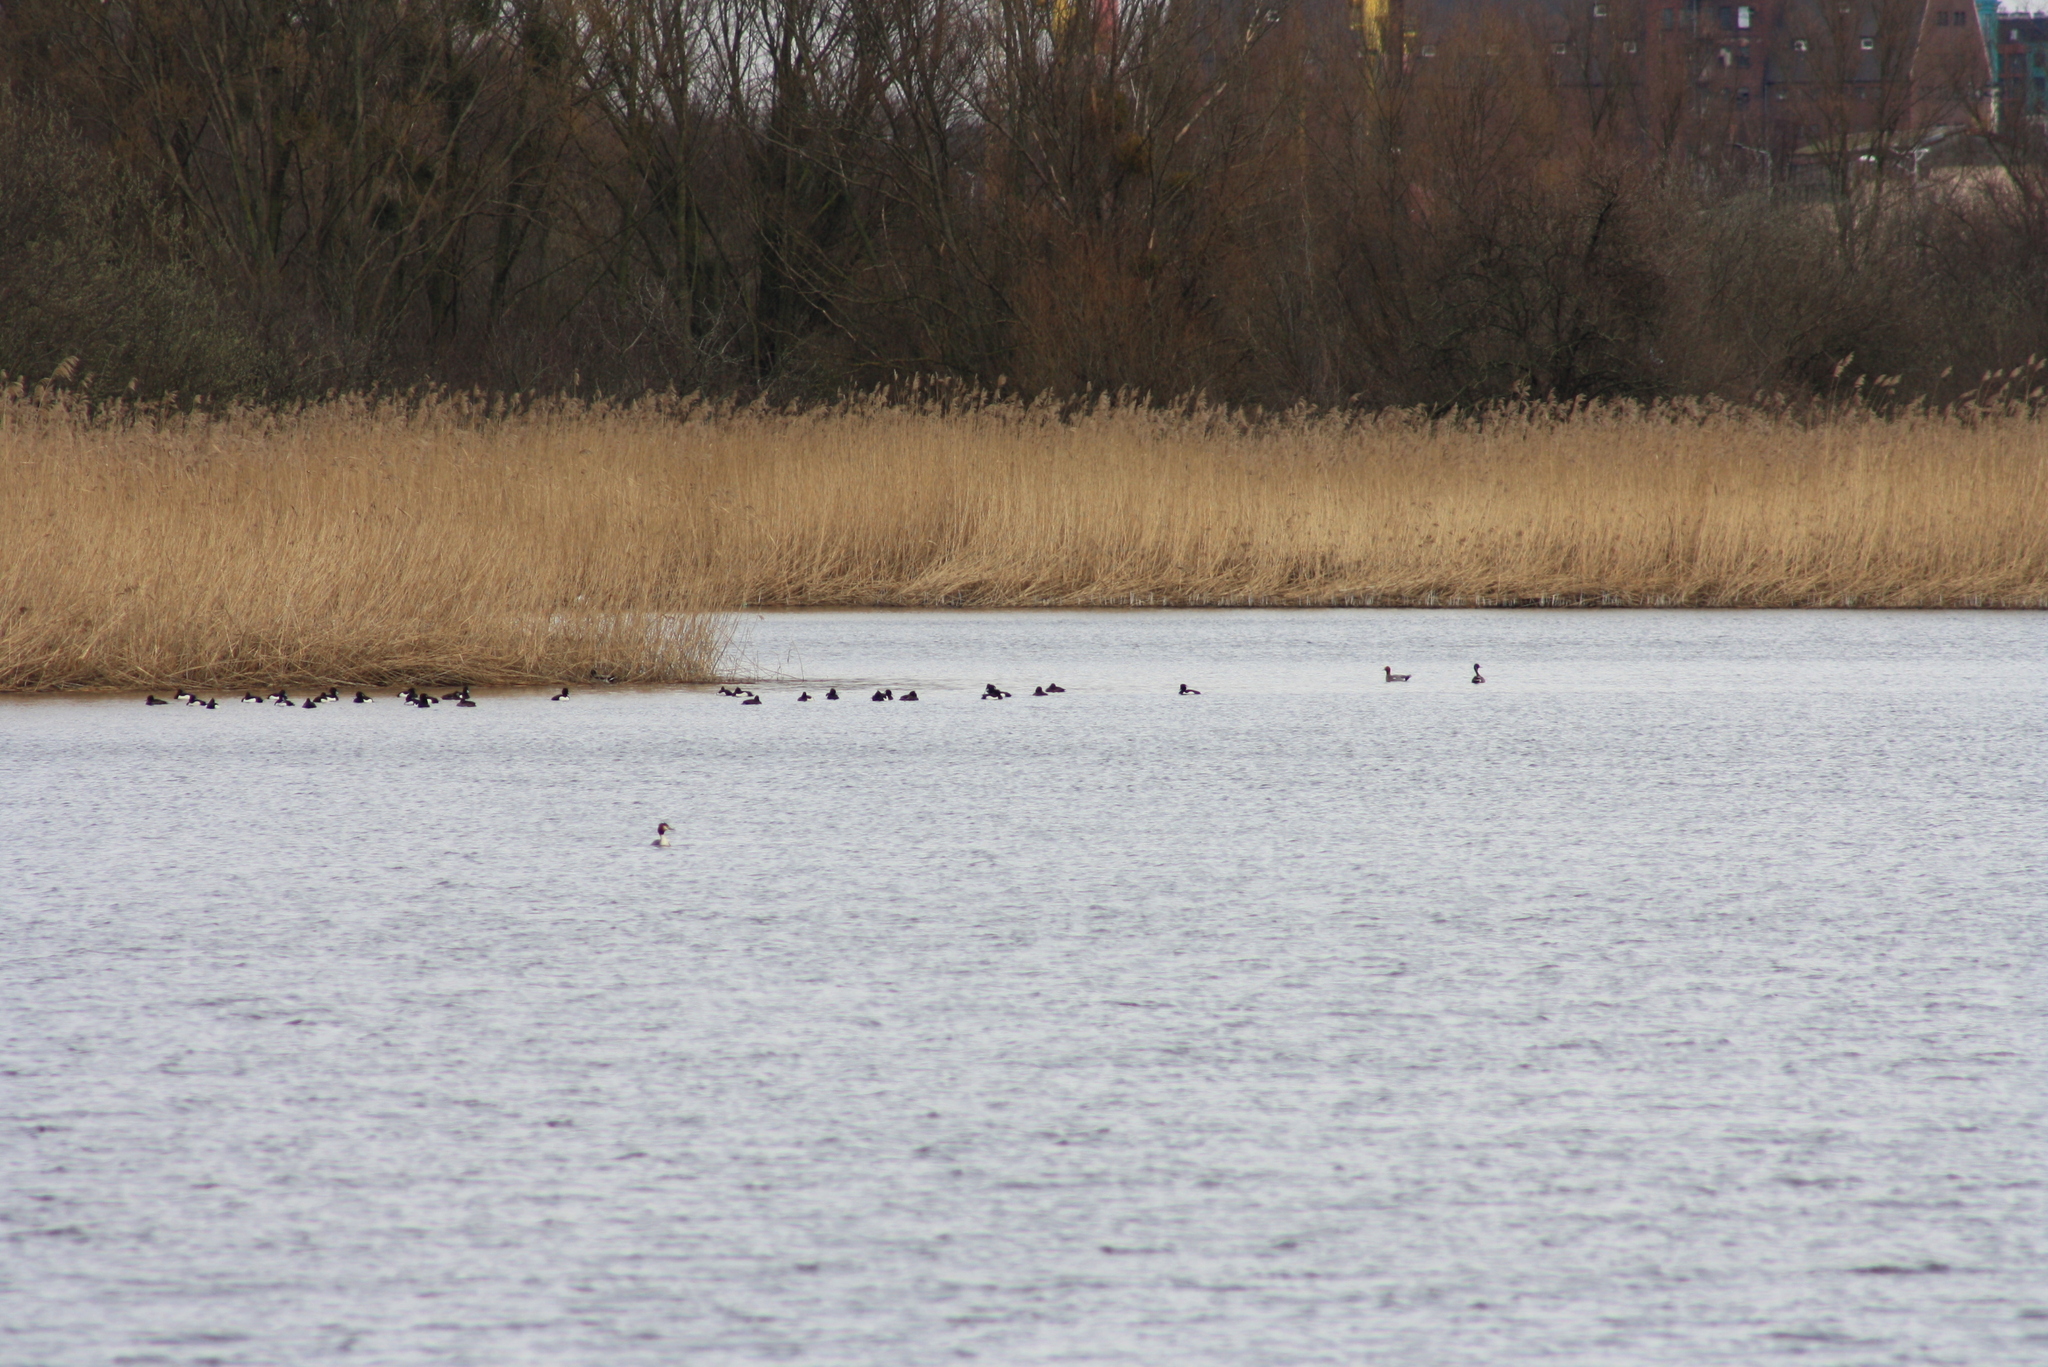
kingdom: Animalia
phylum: Chordata
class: Aves
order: Anseriformes
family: Anatidae
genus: Aythya
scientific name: Aythya fuligula
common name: Tufted duck
